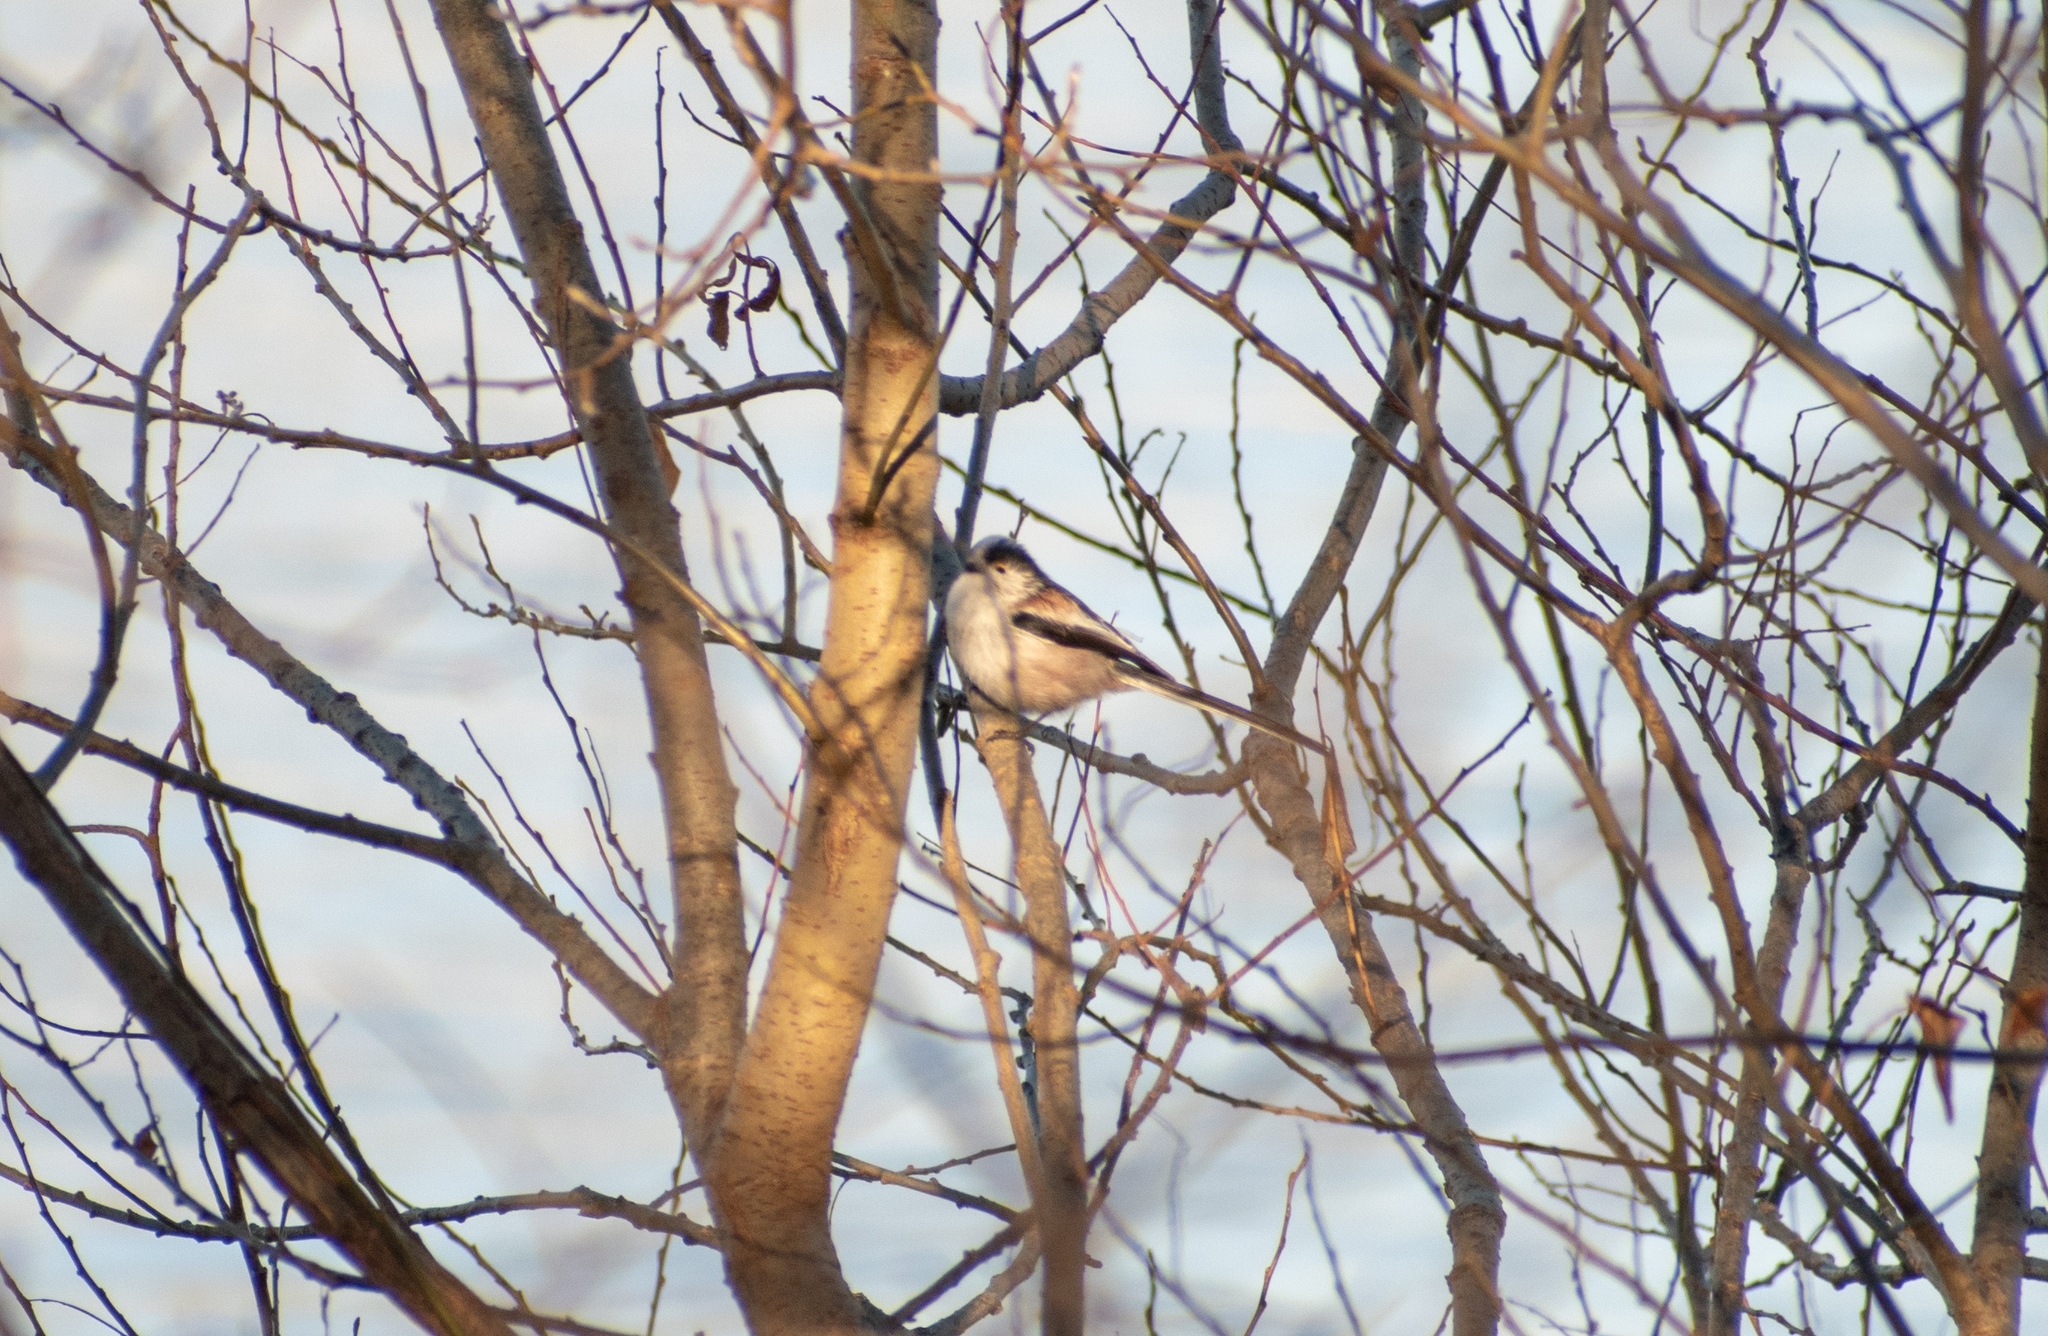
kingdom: Animalia
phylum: Chordata
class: Aves
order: Passeriformes
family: Aegithalidae
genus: Aegithalos
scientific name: Aegithalos caudatus
